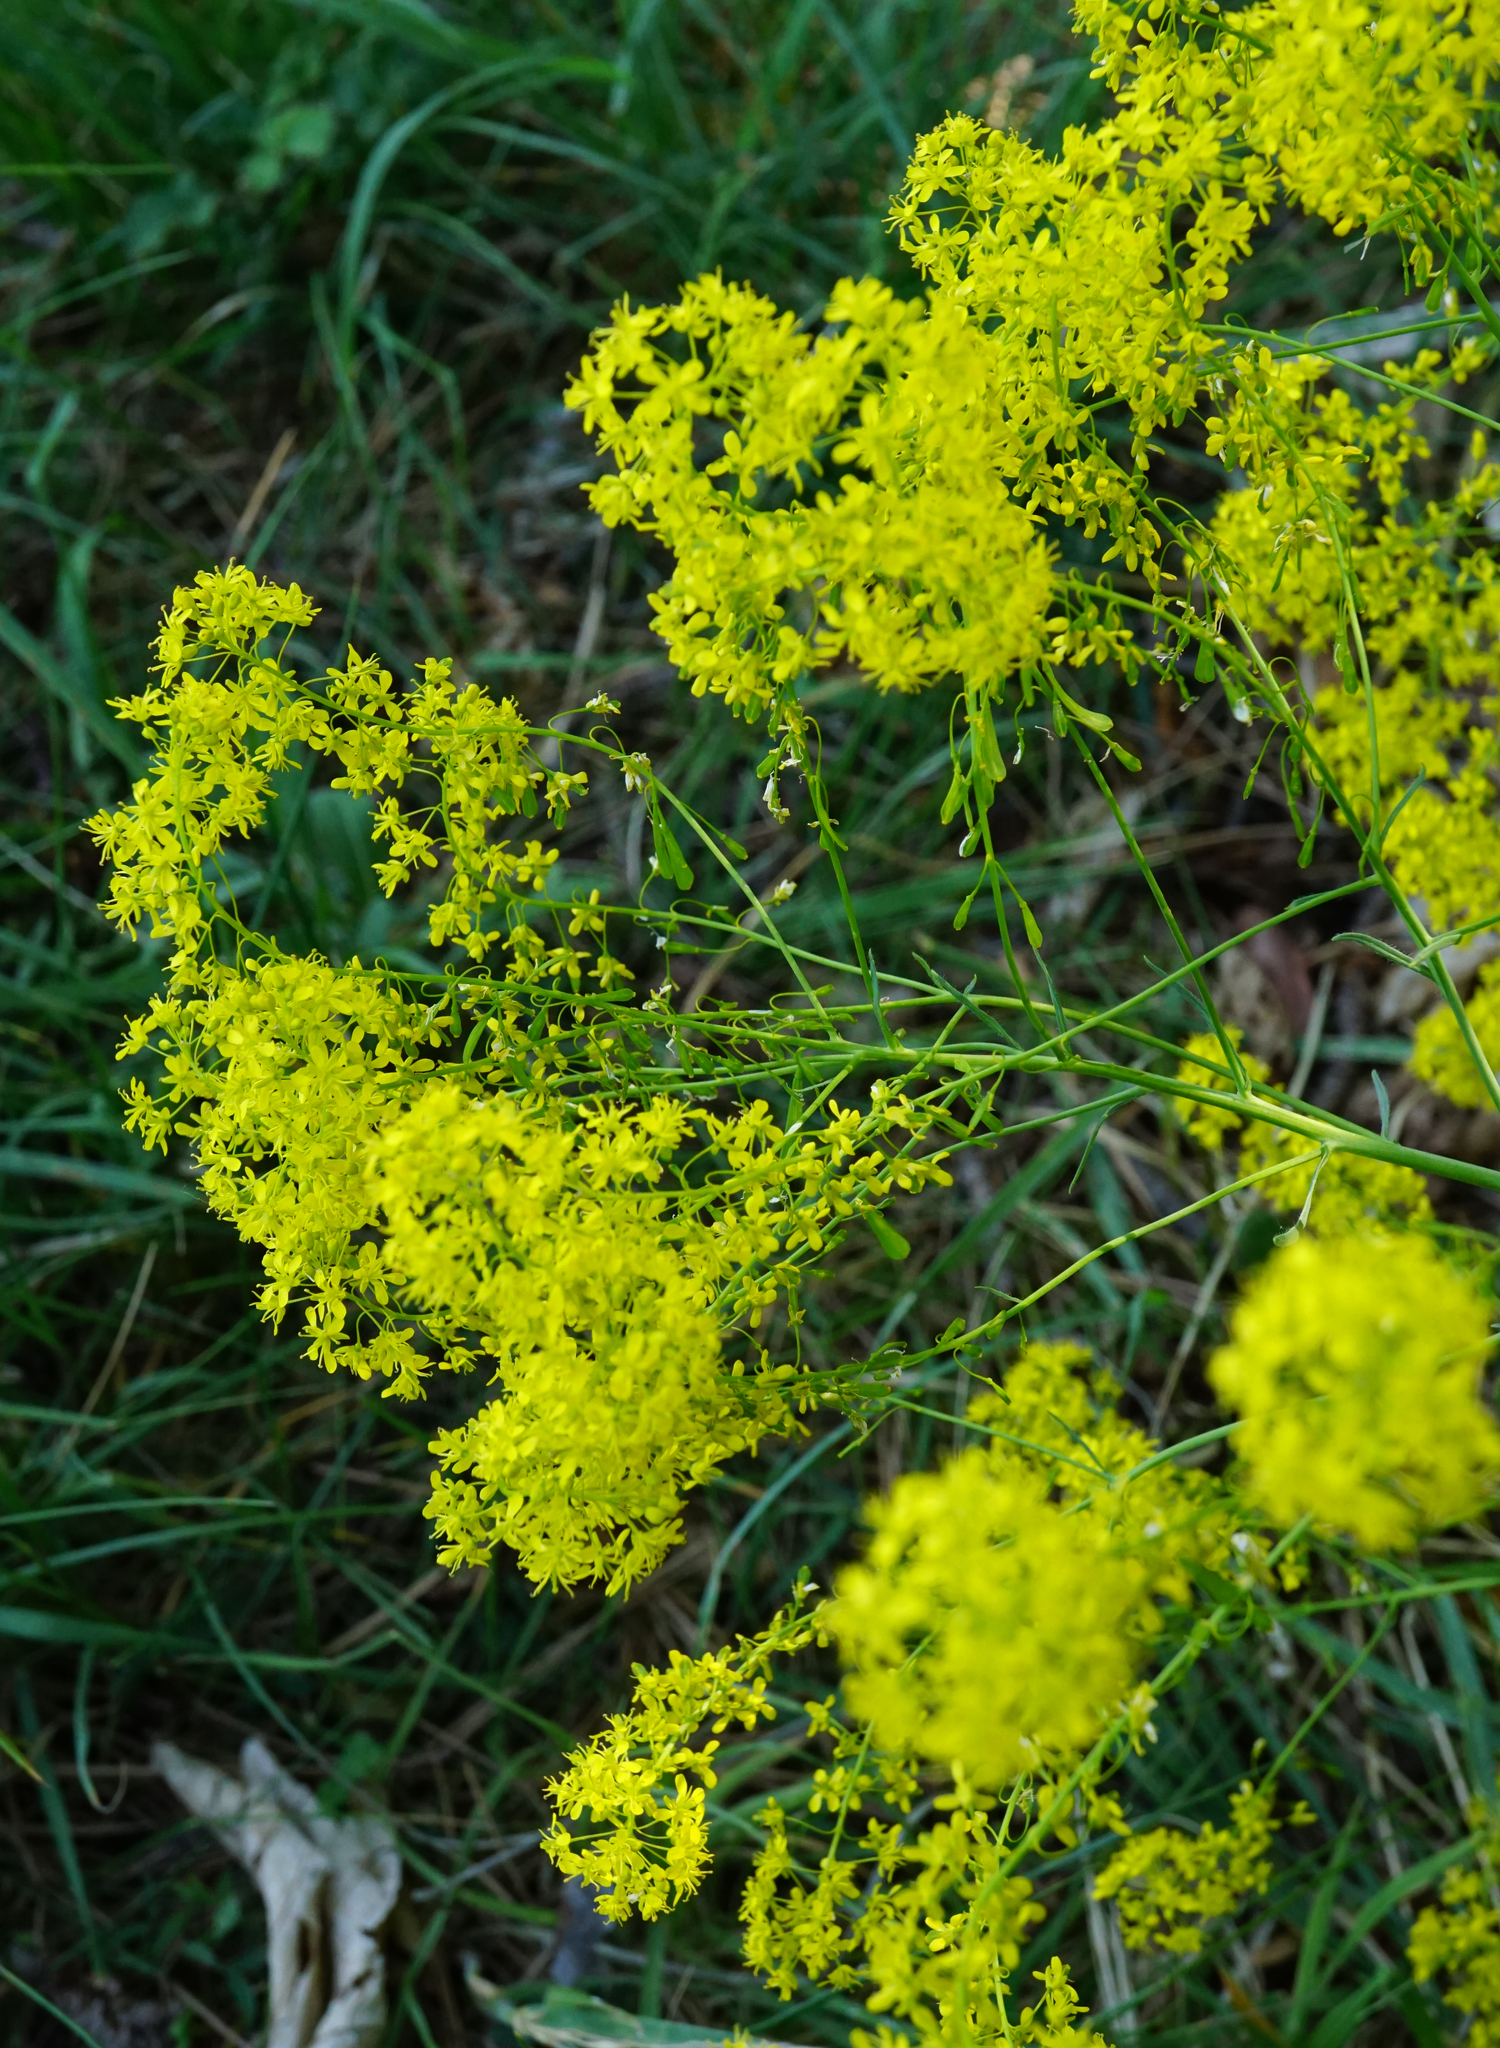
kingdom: Plantae
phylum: Tracheophyta
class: Magnoliopsida
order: Brassicales
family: Brassicaceae
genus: Isatis
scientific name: Isatis tinctoria
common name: Woad
